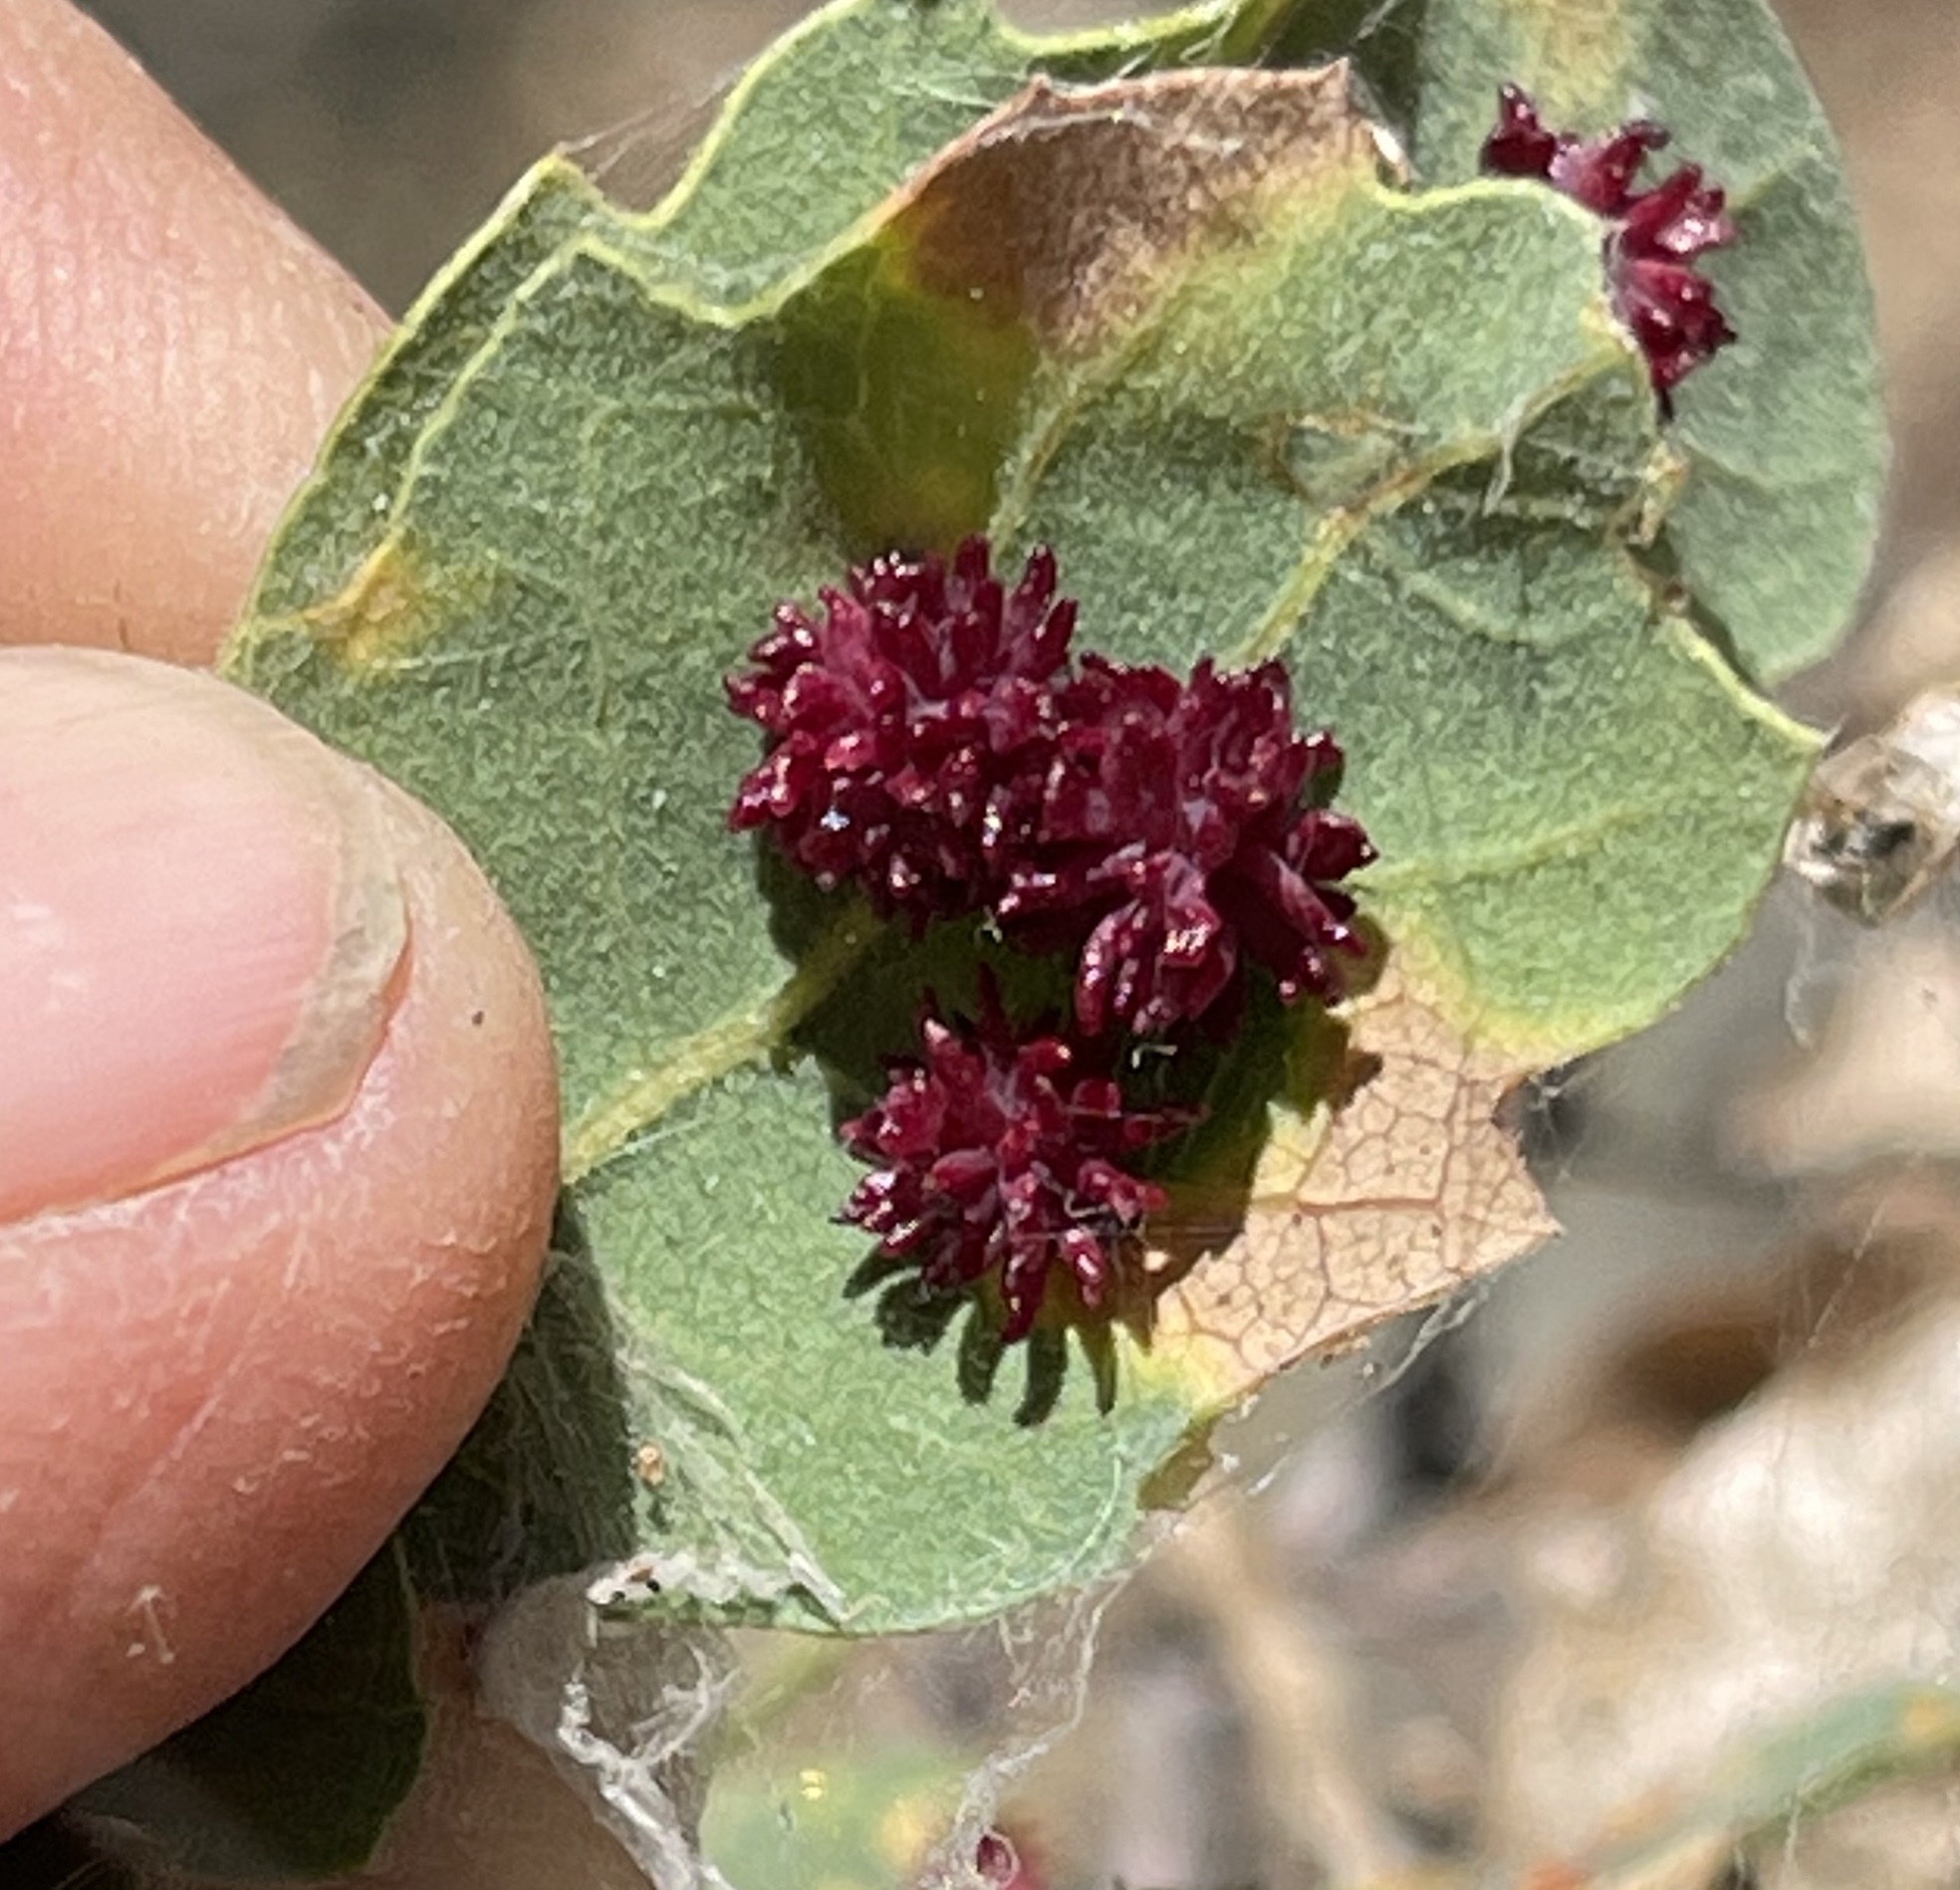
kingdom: Animalia
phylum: Arthropoda
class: Insecta
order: Hymenoptera
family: Cynipidae
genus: Cynips
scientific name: Cynips
